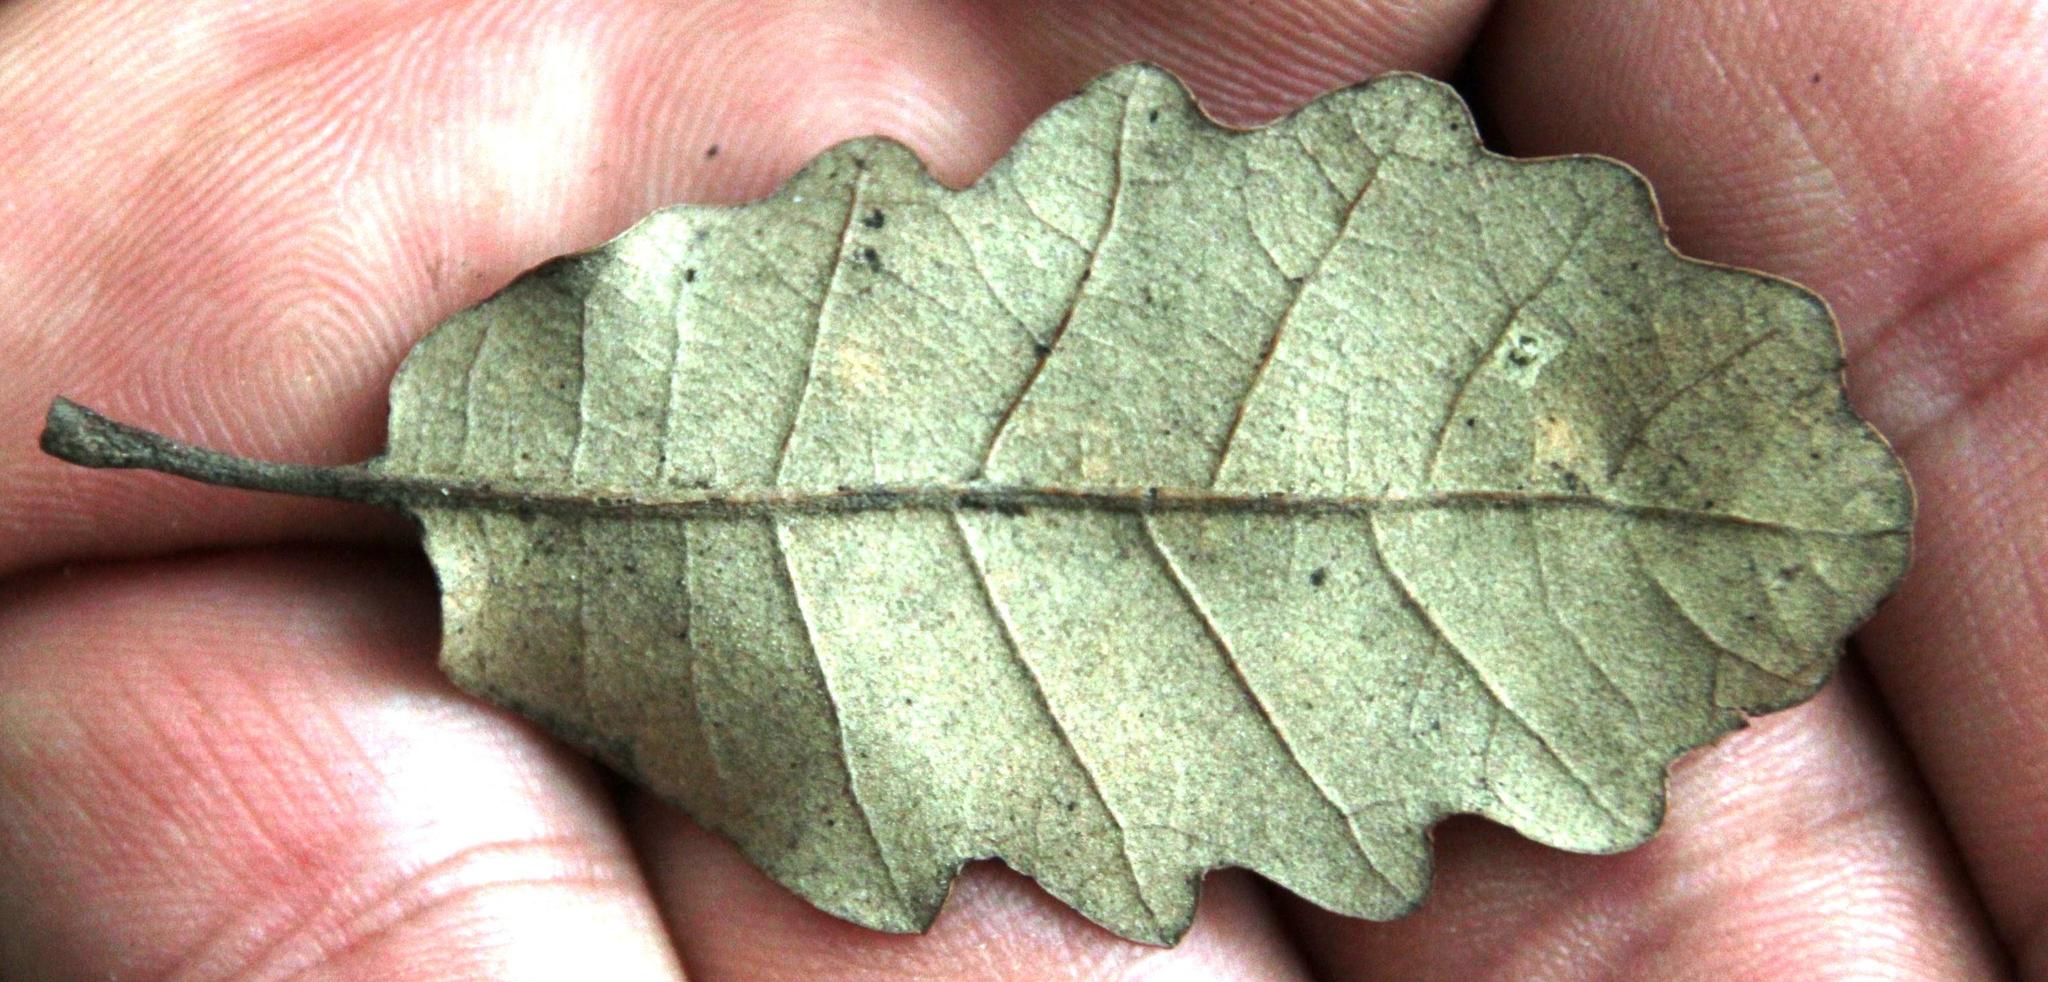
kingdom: Plantae
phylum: Tracheophyta
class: Magnoliopsida
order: Fagales
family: Fagaceae
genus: Quercus
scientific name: Quercus faginea
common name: Gall oak tree
